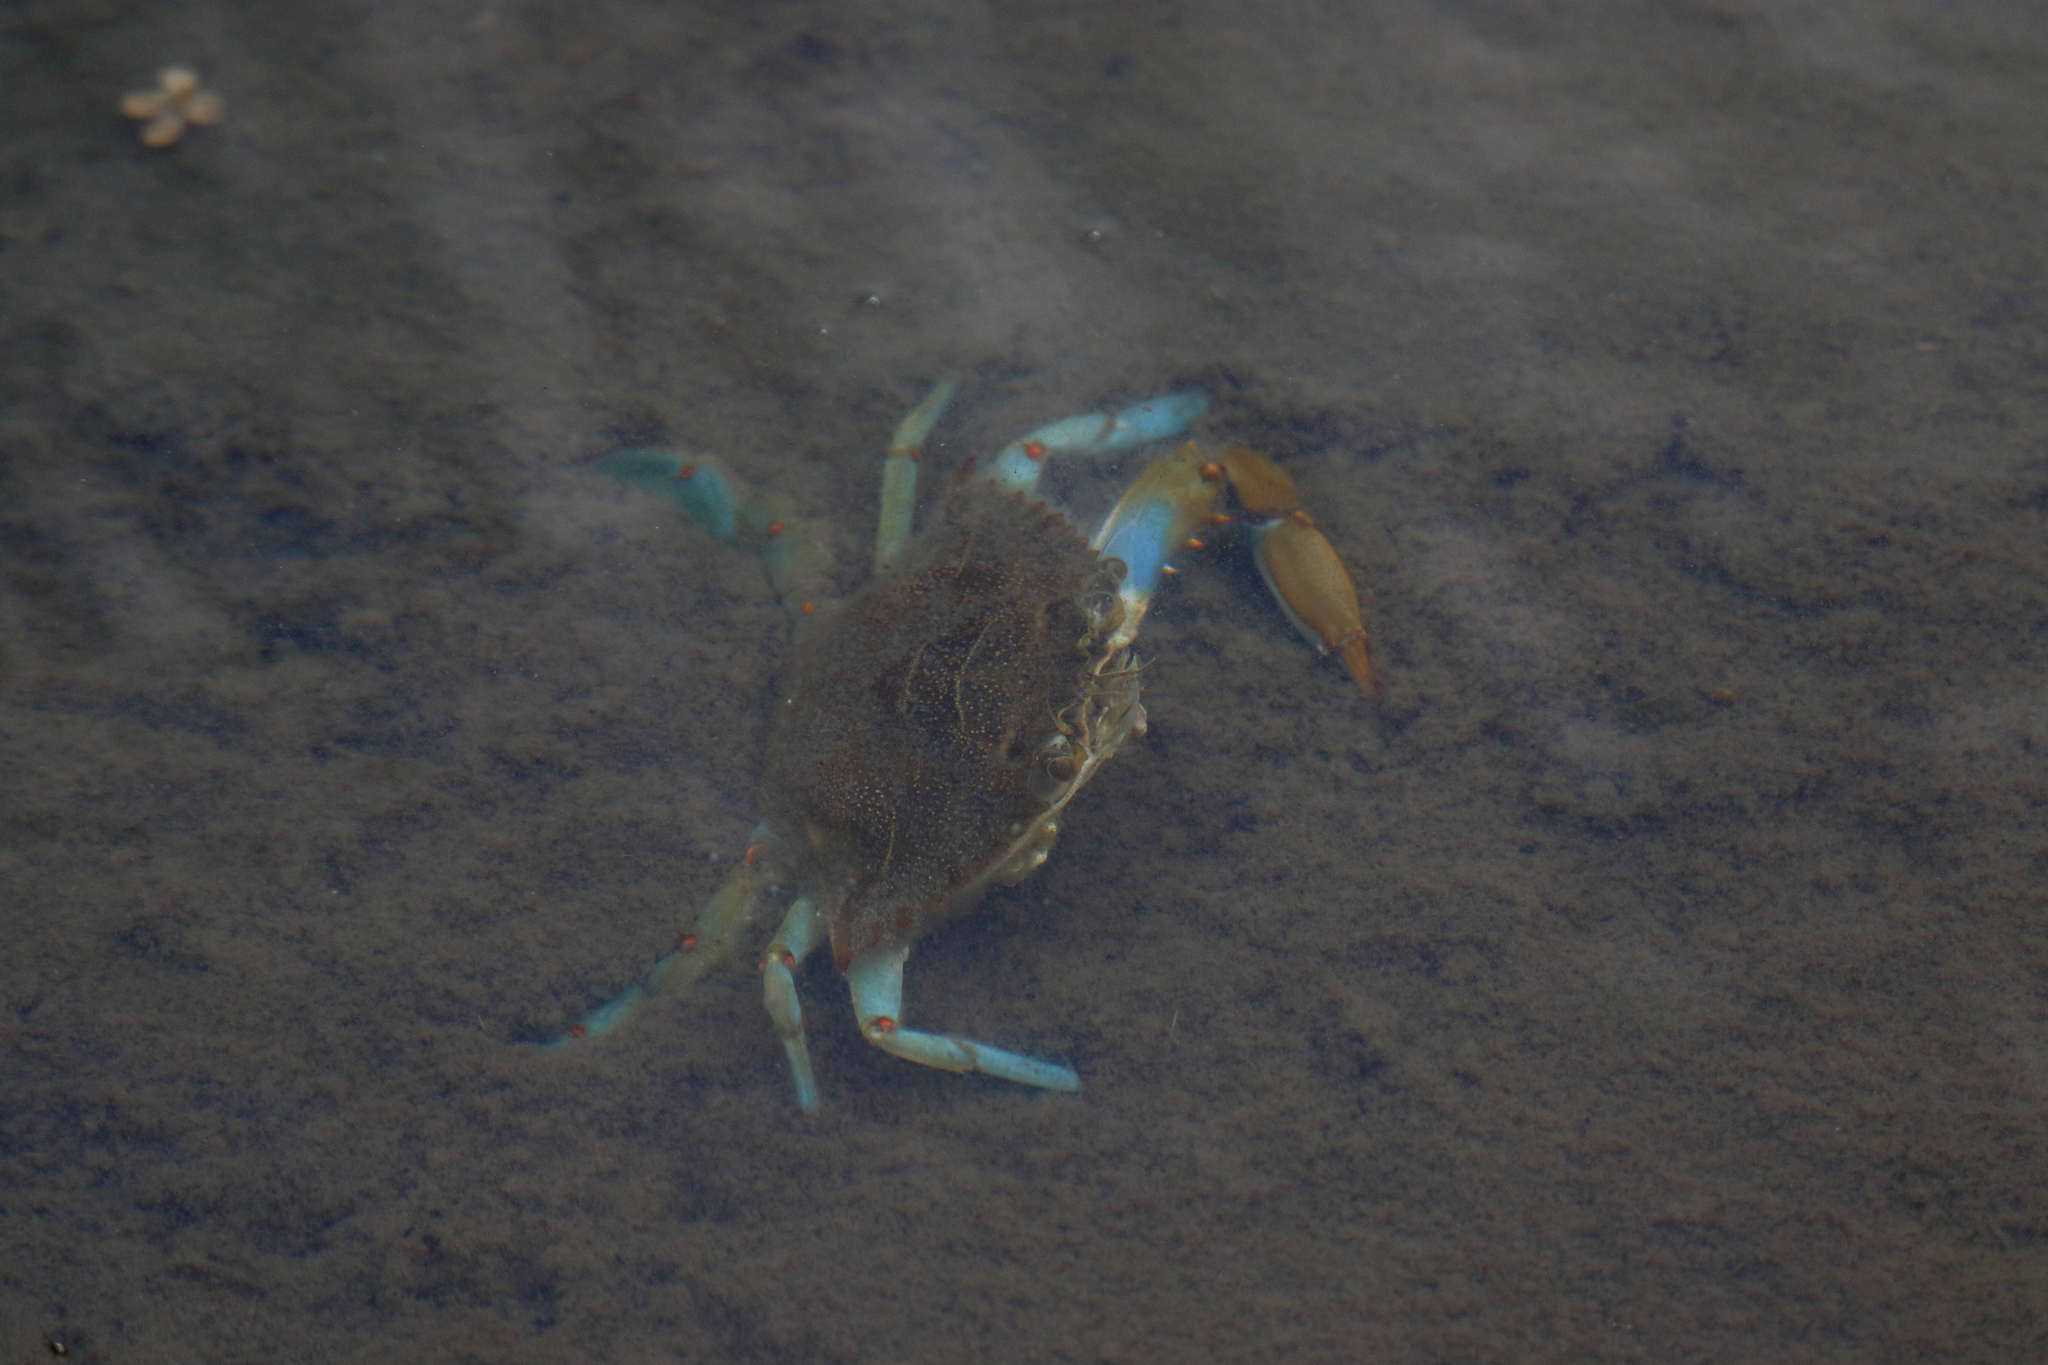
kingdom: Animalia
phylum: Arthropoda
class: Malacostraca
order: Decapoda
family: Portunidae
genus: Callinectes
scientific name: Callinectes sapidus
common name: Blue crab
